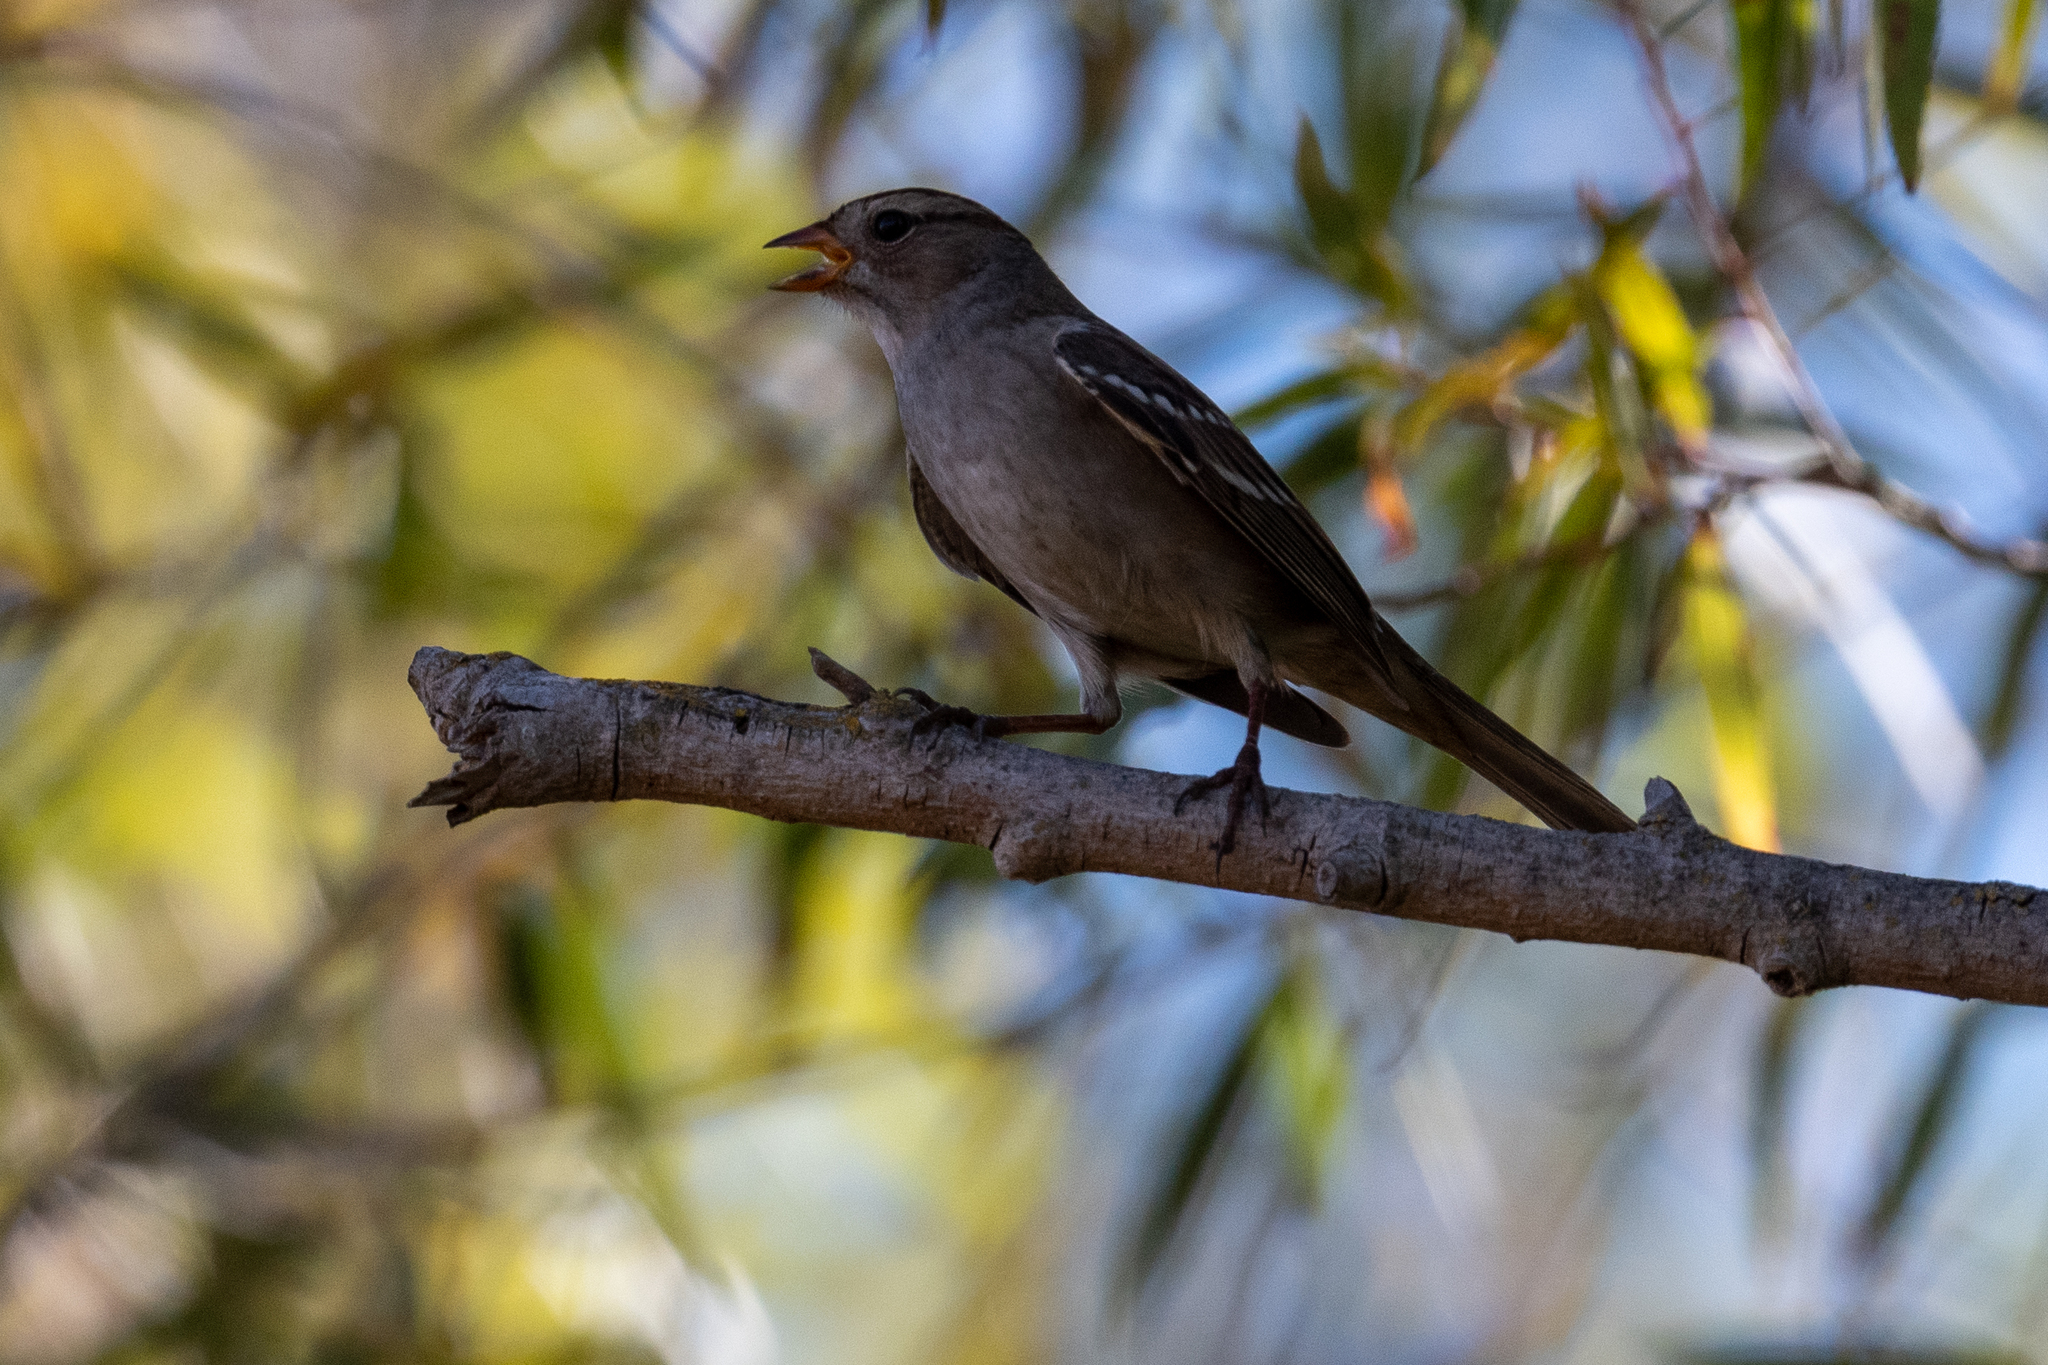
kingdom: Animalia
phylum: Chordata
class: Aves
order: Passeriformes
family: Passerellidae
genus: Zonotrichia
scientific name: Zonotrichia leucophrys
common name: White-crowned sparrow
